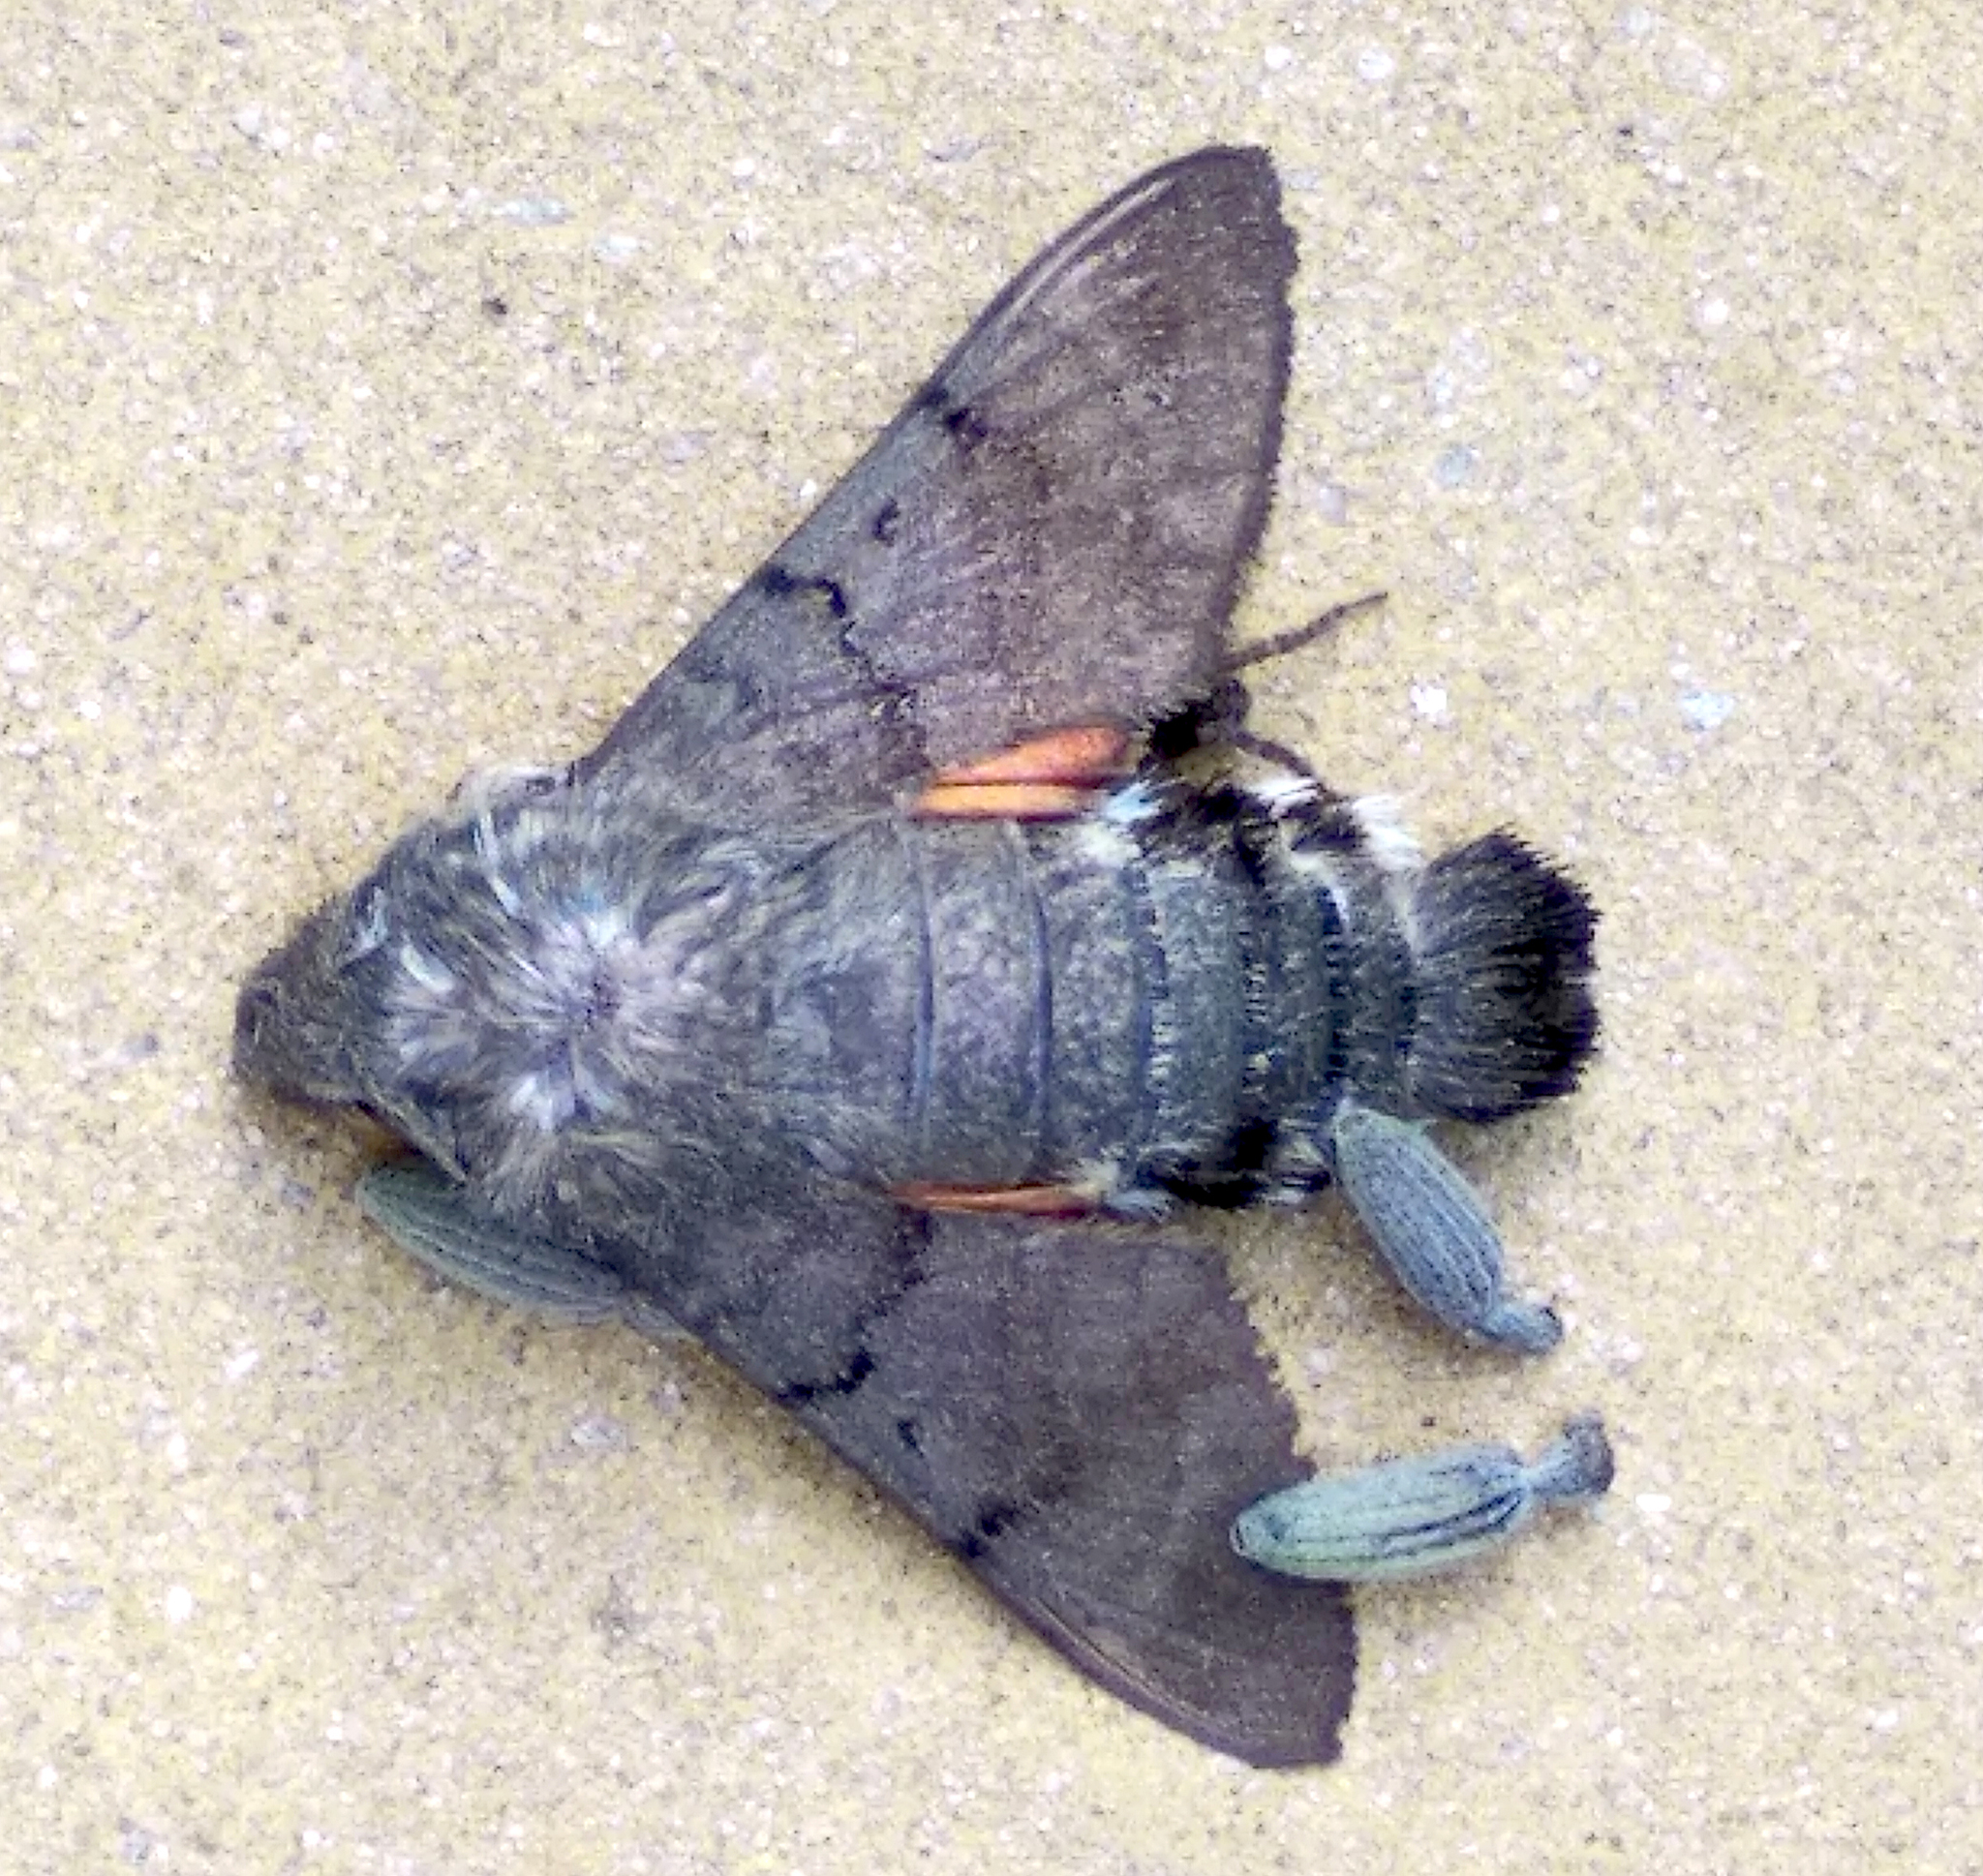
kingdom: Animalia
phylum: Arthropoda
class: Insecta
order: Lepidoptera
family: Sphingidae
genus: Macroglossum
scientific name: Macroglossum stellatarum
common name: Humming-bird hawk-moth
